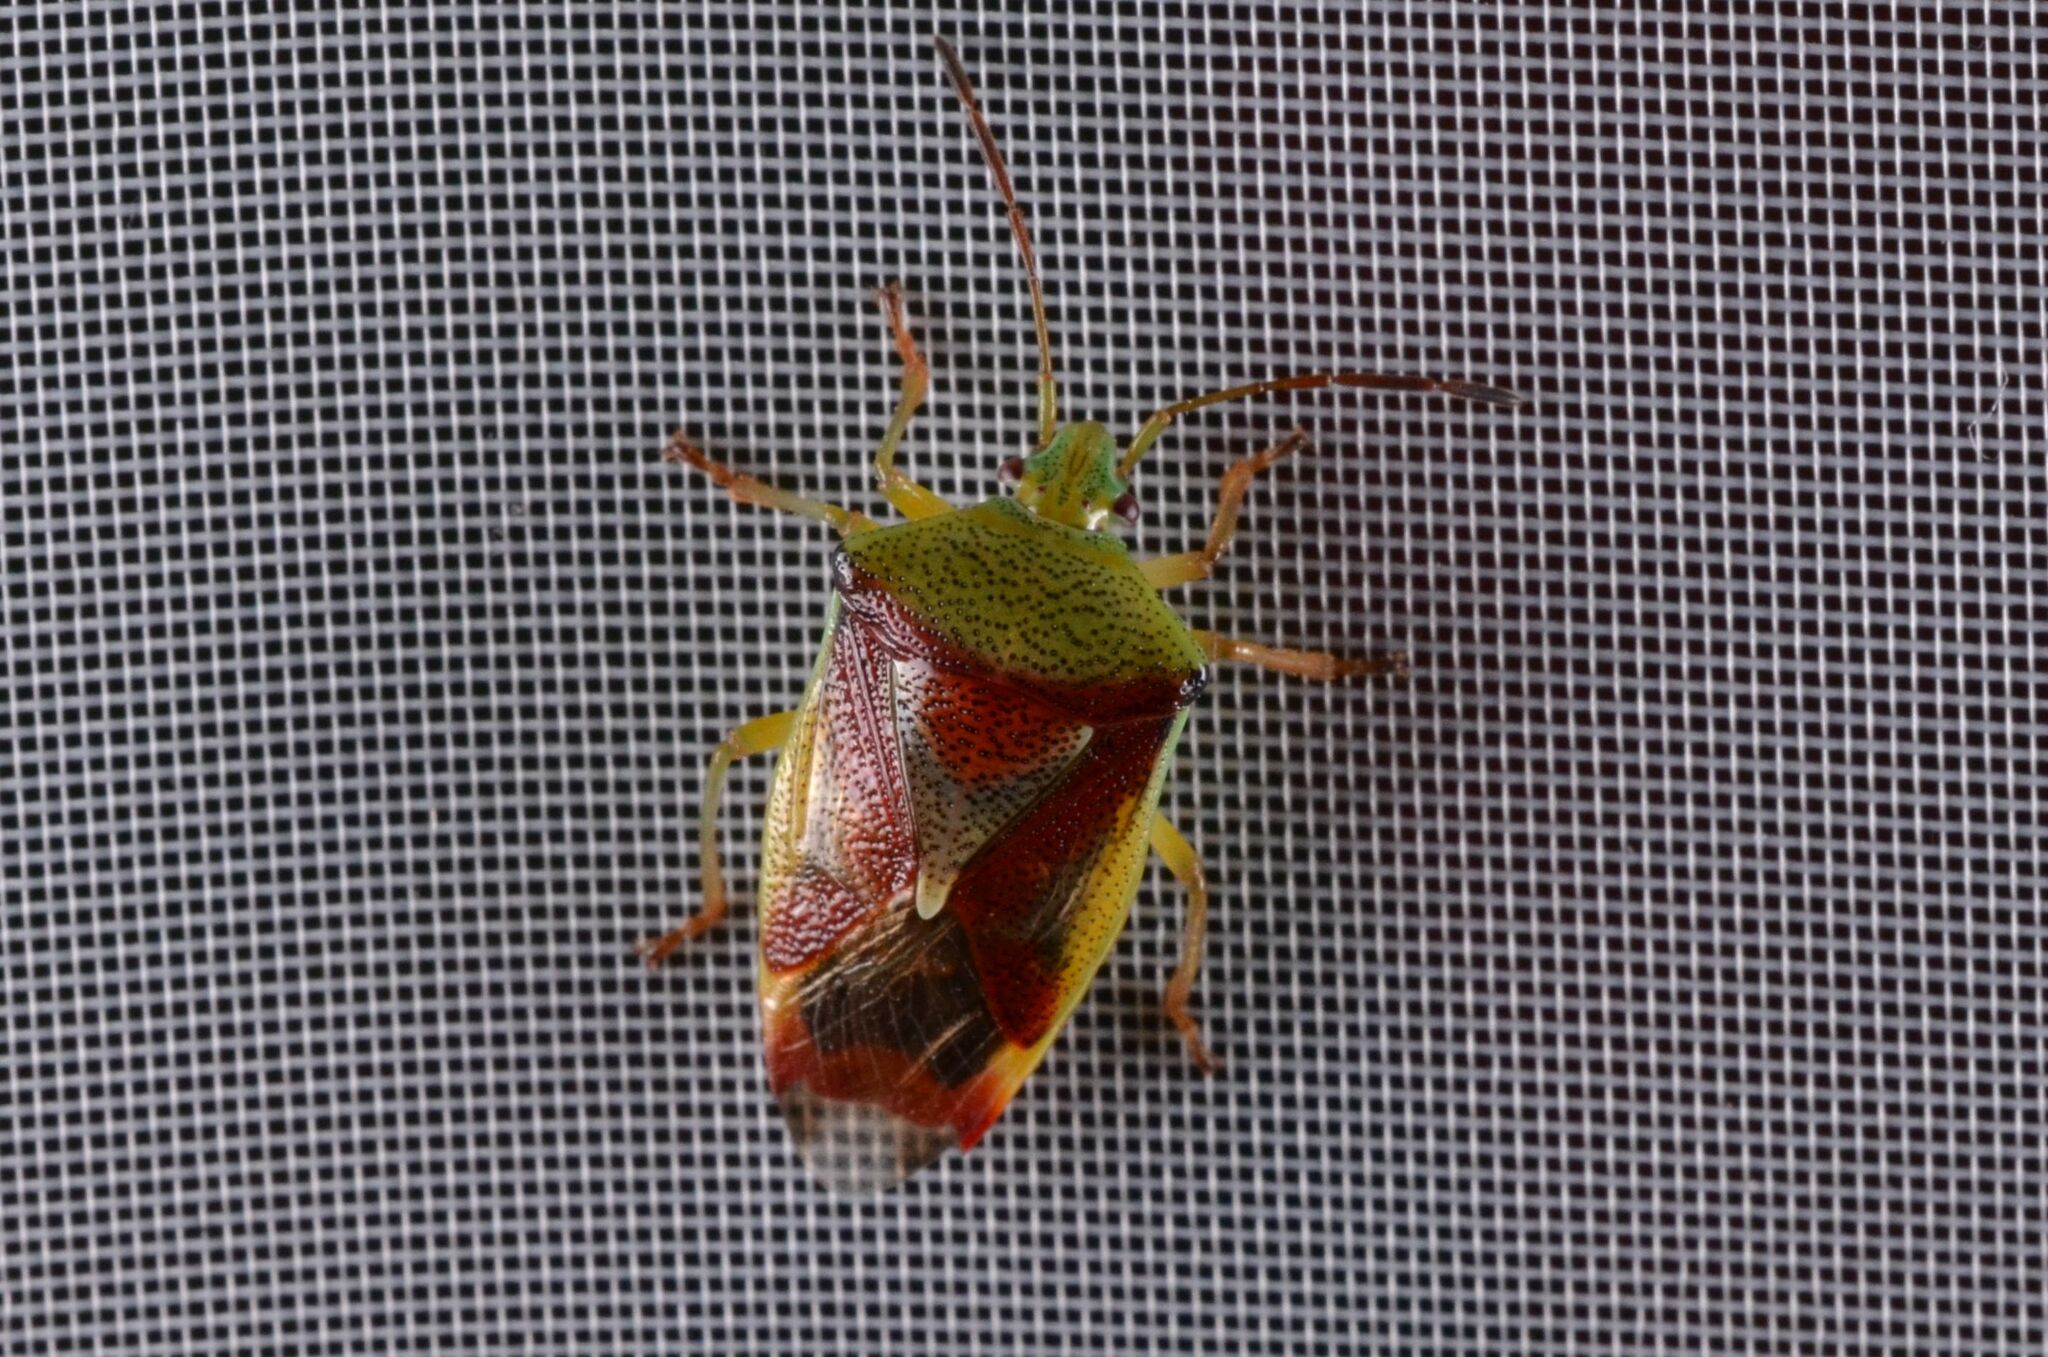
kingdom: Animalia
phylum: Arthropoda
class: Insecta
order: Hemiptera
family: Acanthosomatidae
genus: Elasmostethus
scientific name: Elasmostethus
